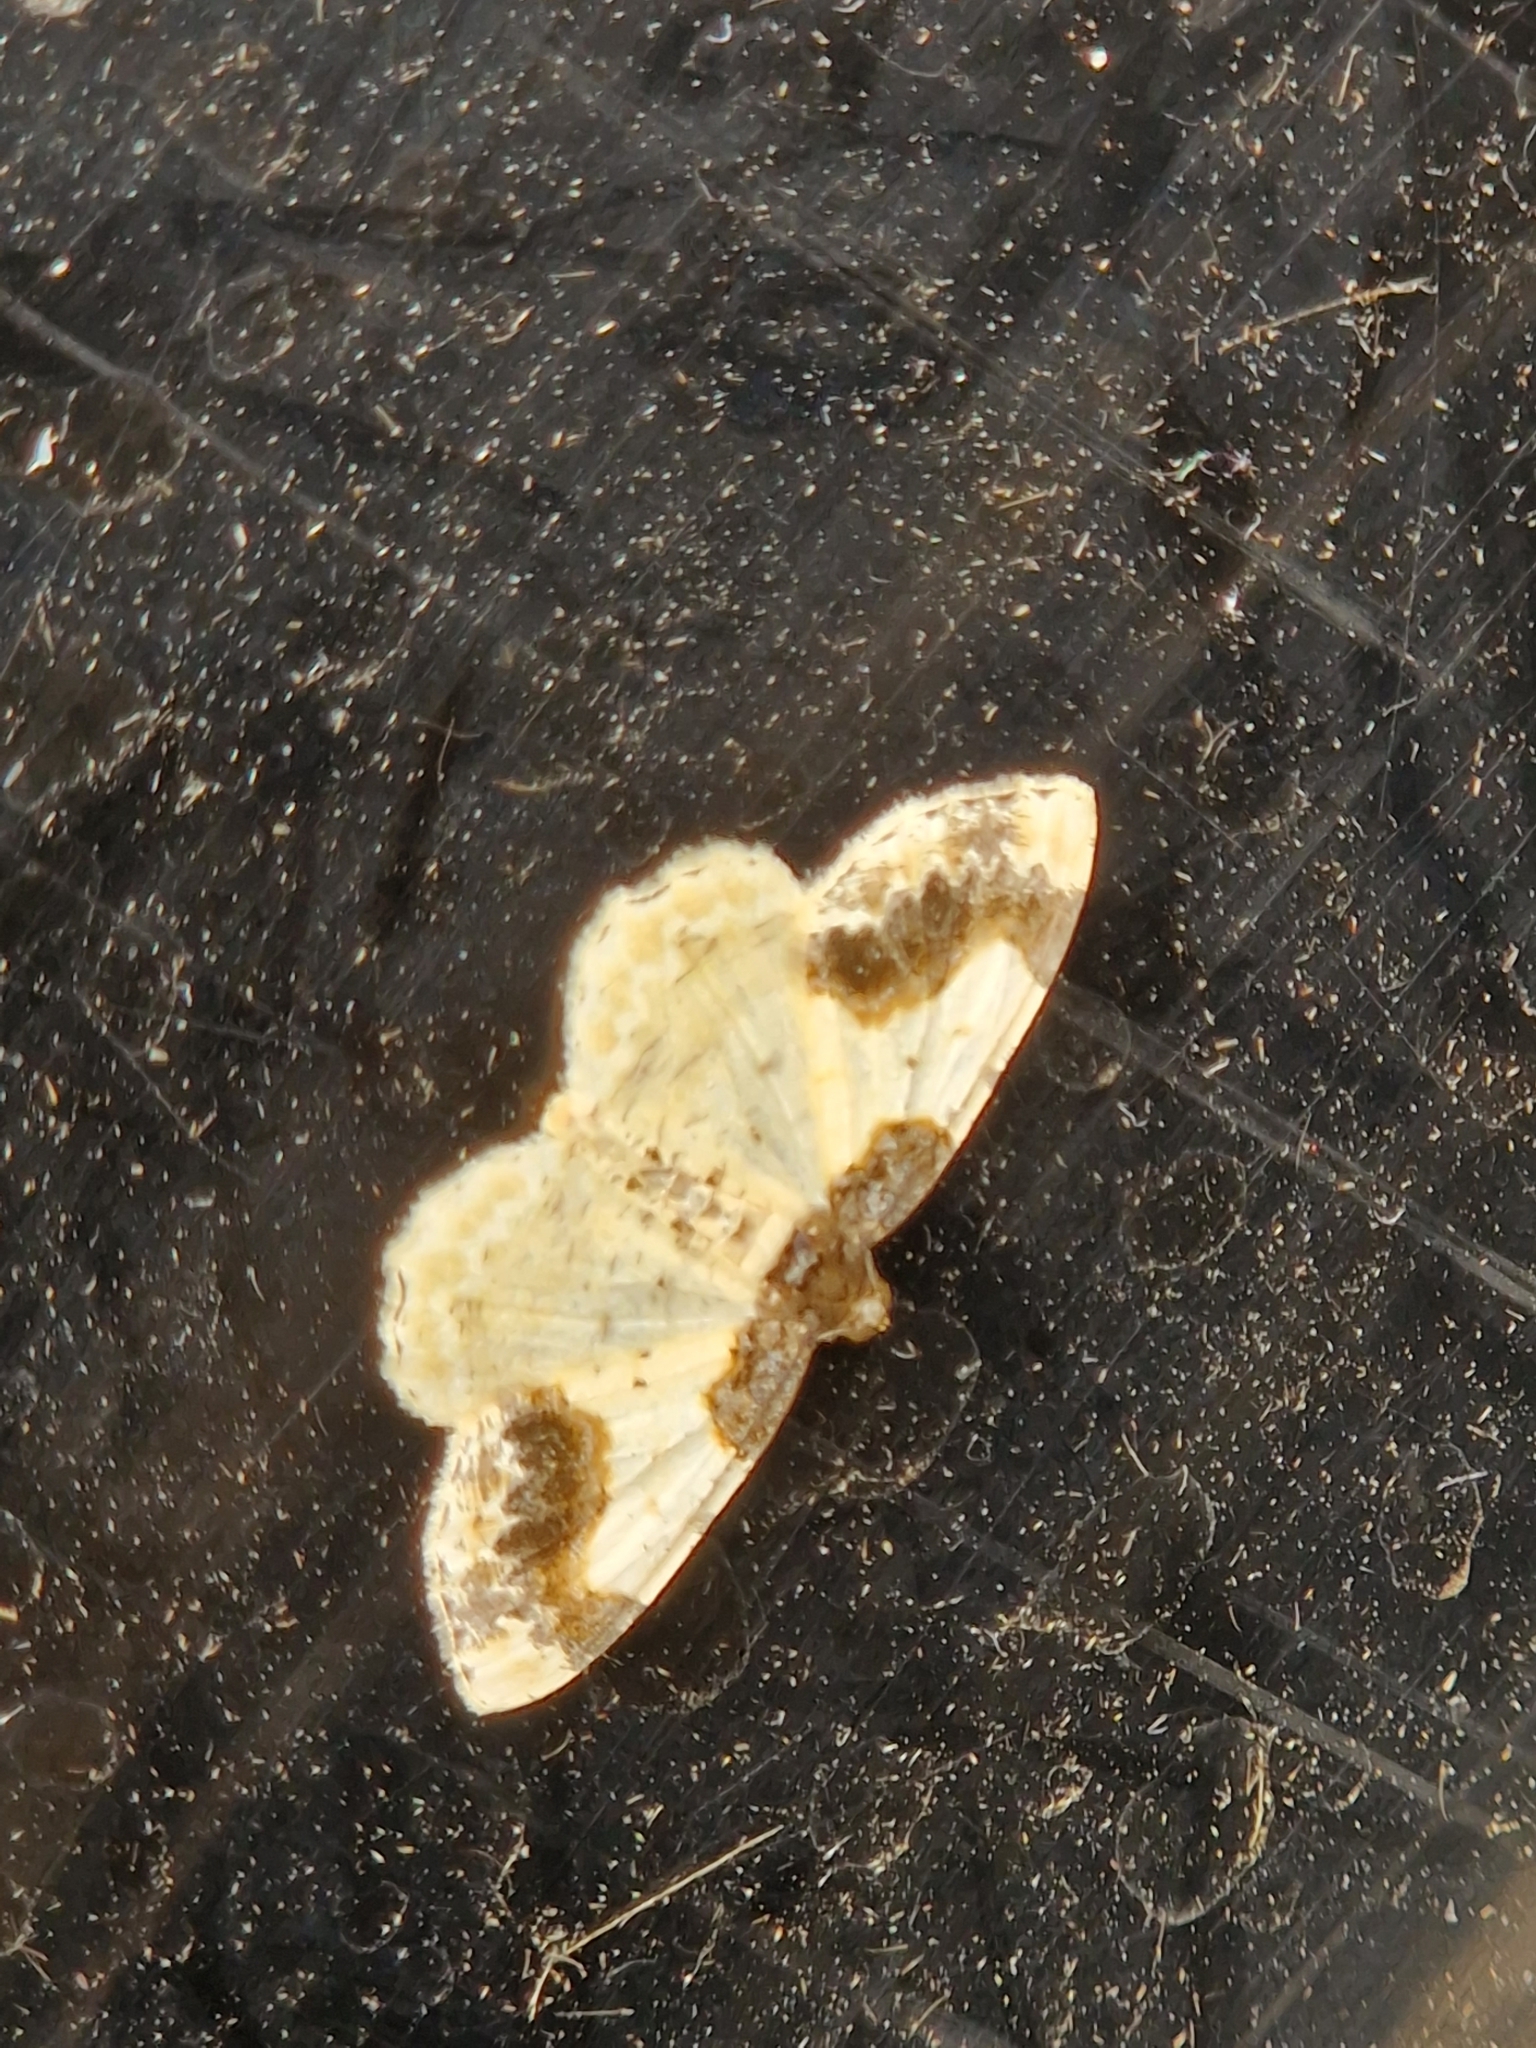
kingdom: Animalia
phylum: Arthropoda
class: Insecta
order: Lepidoptera
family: Geometridae
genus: Ligdia
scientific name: Ligdia adustata
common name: Scorched carpet
